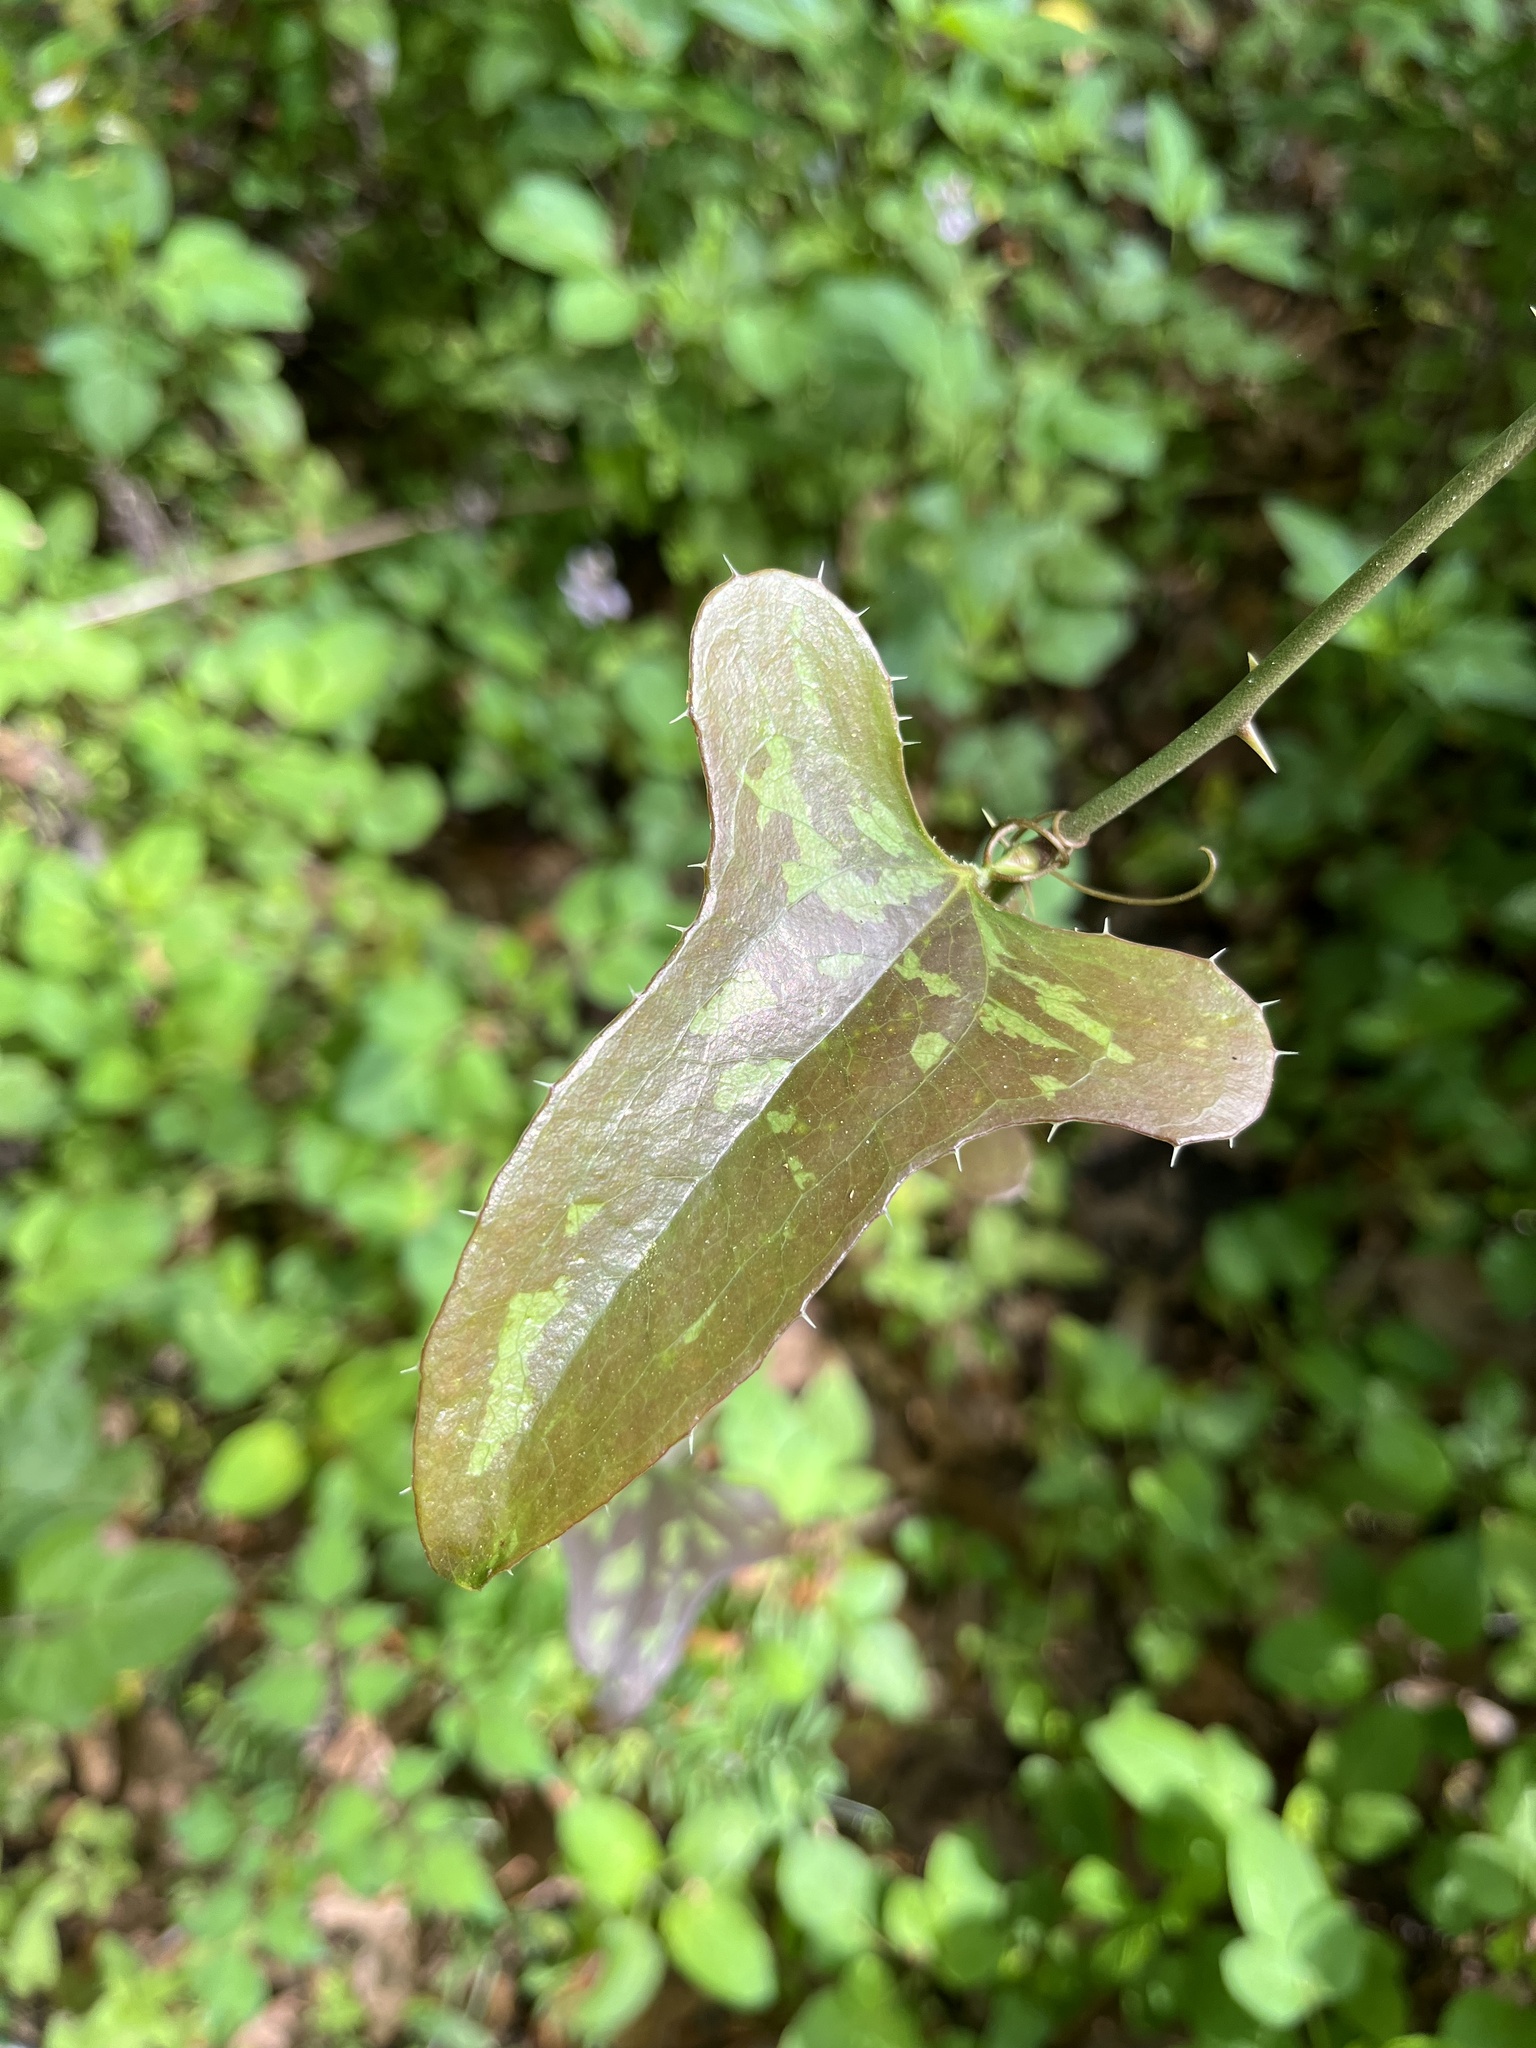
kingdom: Plantae
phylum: Tracheophyta
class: Liliopsida
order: Liliales
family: Smilacaceae
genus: Smilax
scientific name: Smilax bona-nox
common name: Catbrier
